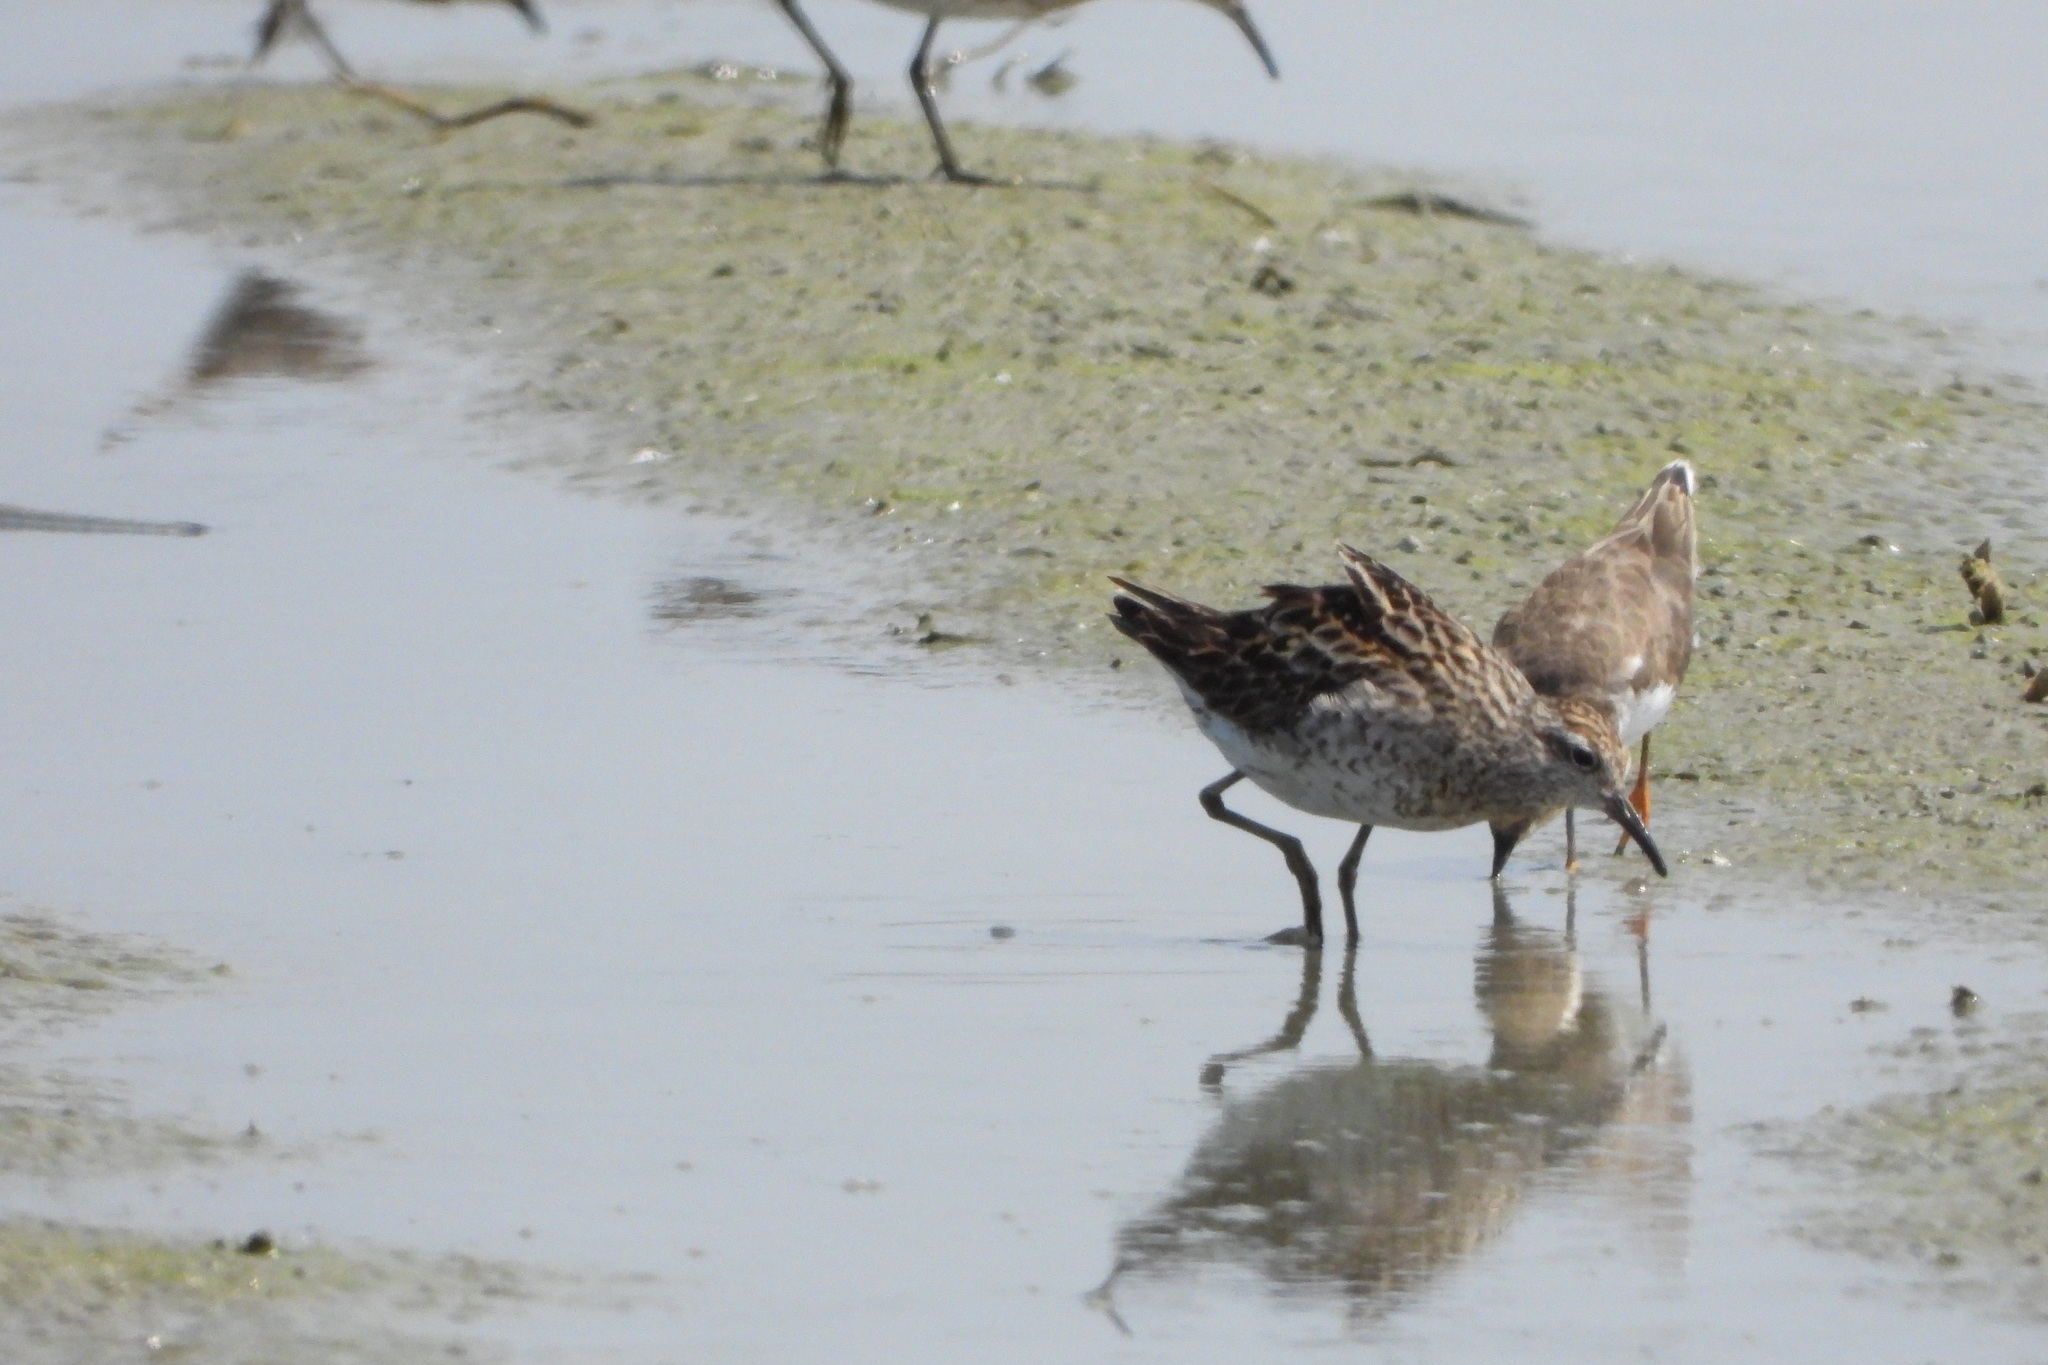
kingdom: Animalia
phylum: Chordata
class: Aves
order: Charadriiformes
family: Scolopacidae
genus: Calidris
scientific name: Calidris acuminata
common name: Sharp-tailed sandpiper
